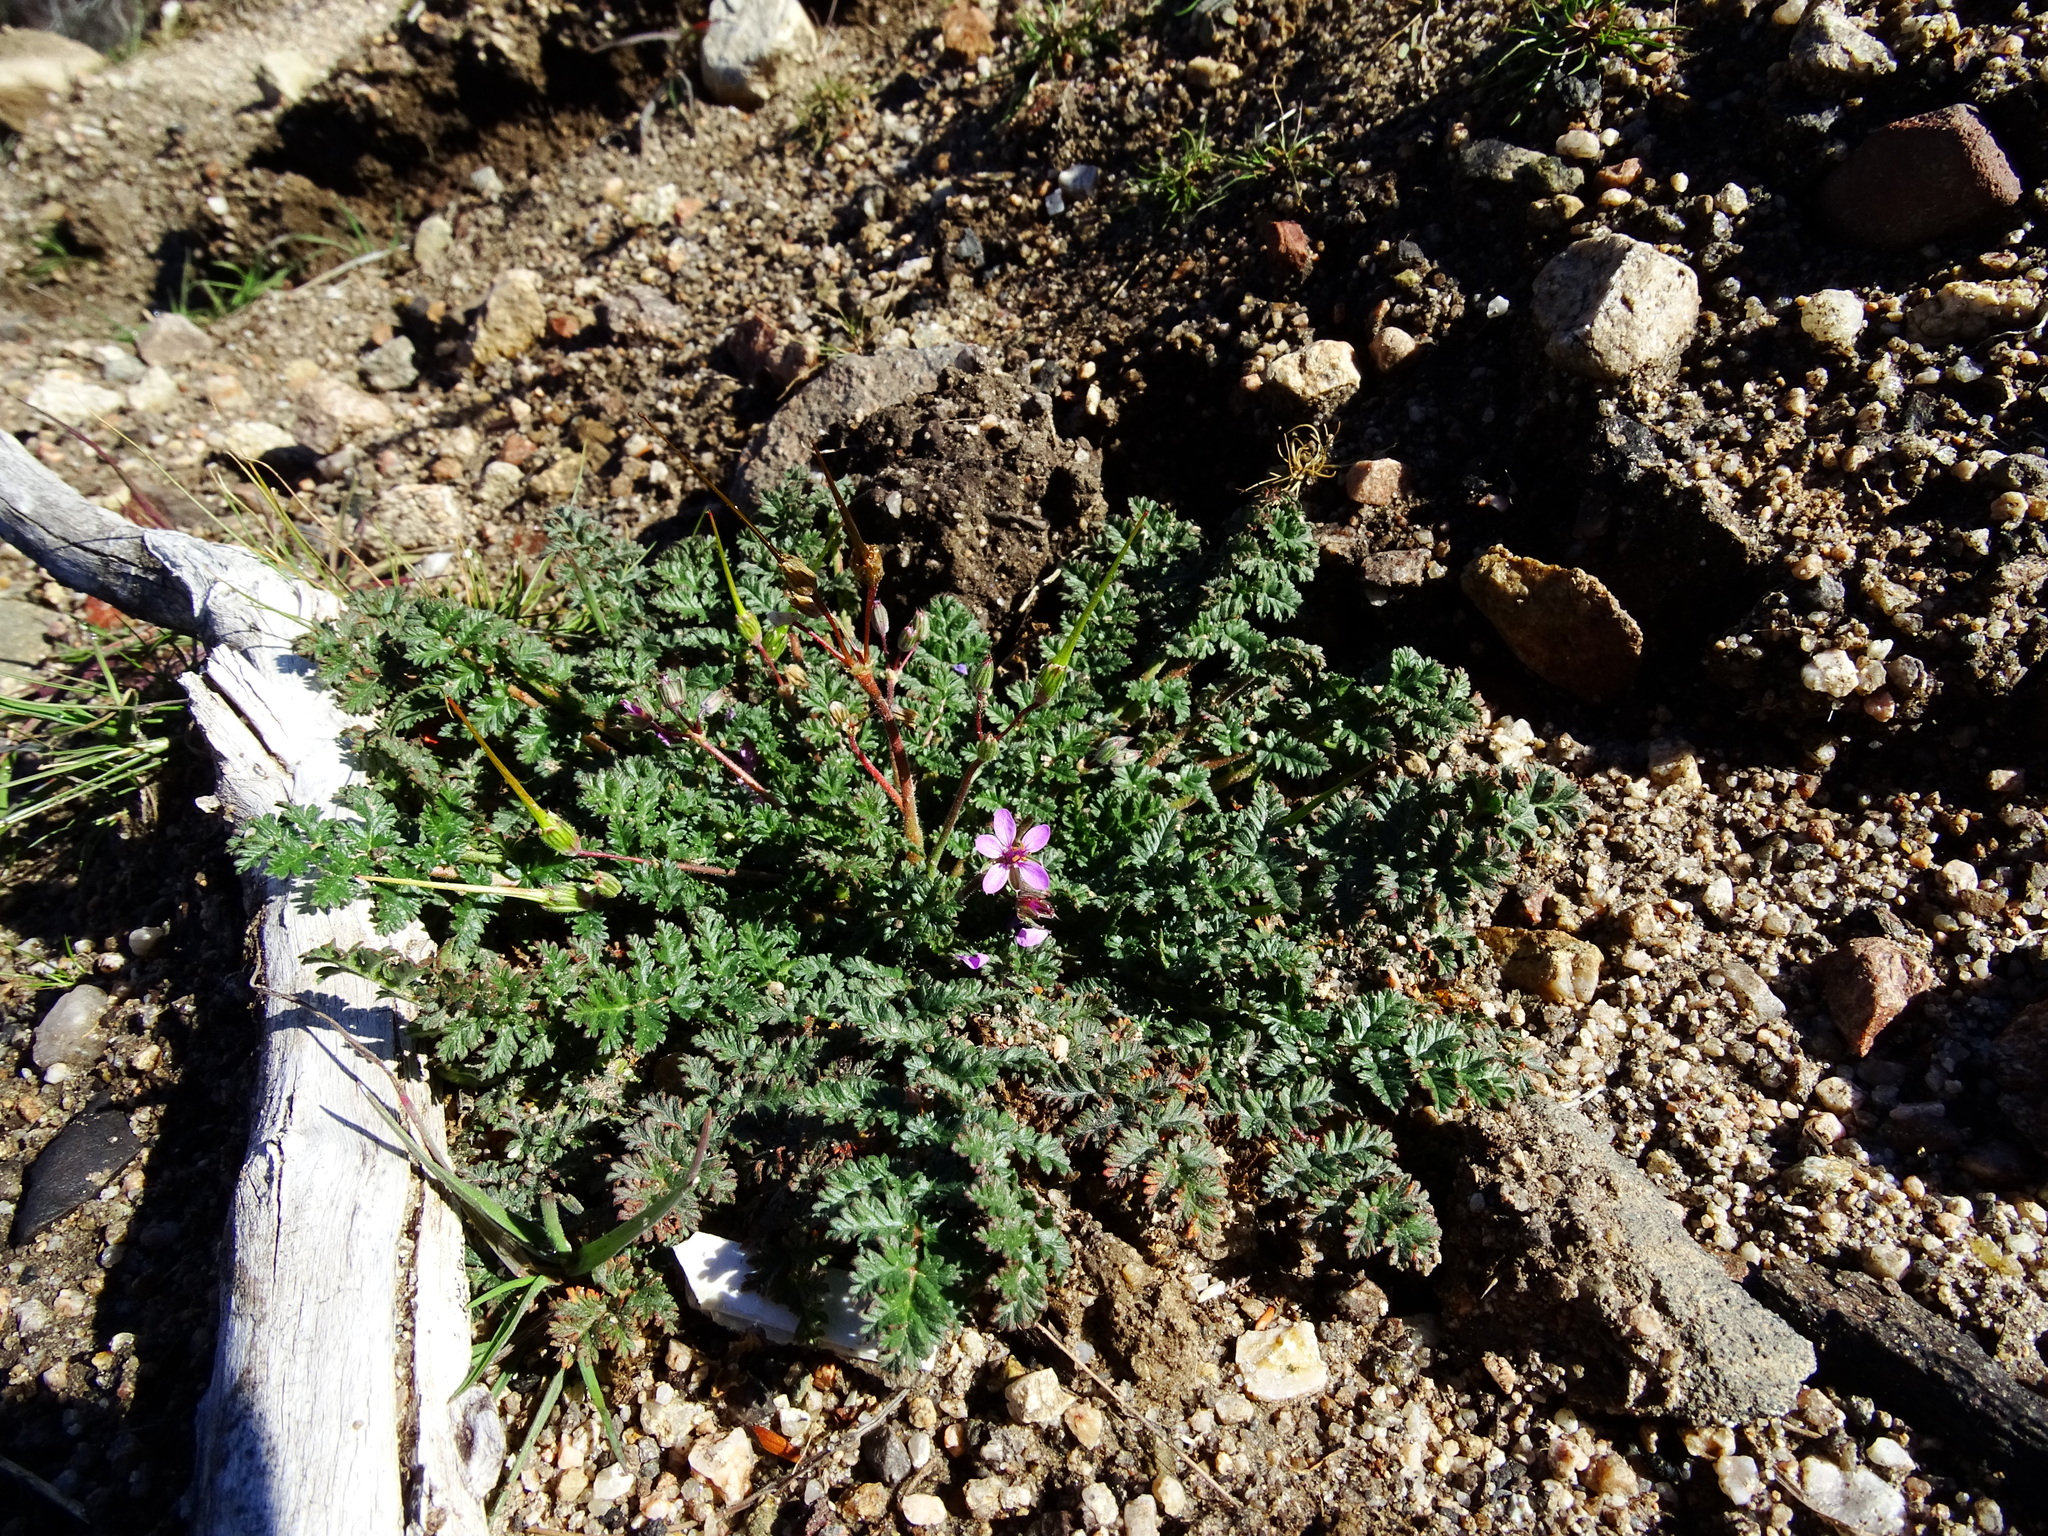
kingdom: Plantae
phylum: Tracheophyta
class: Magnoliopsida
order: Geraniales
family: Geraniaceae
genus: Erodium
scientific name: Erodium cicutarium
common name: Common stork's-bill
